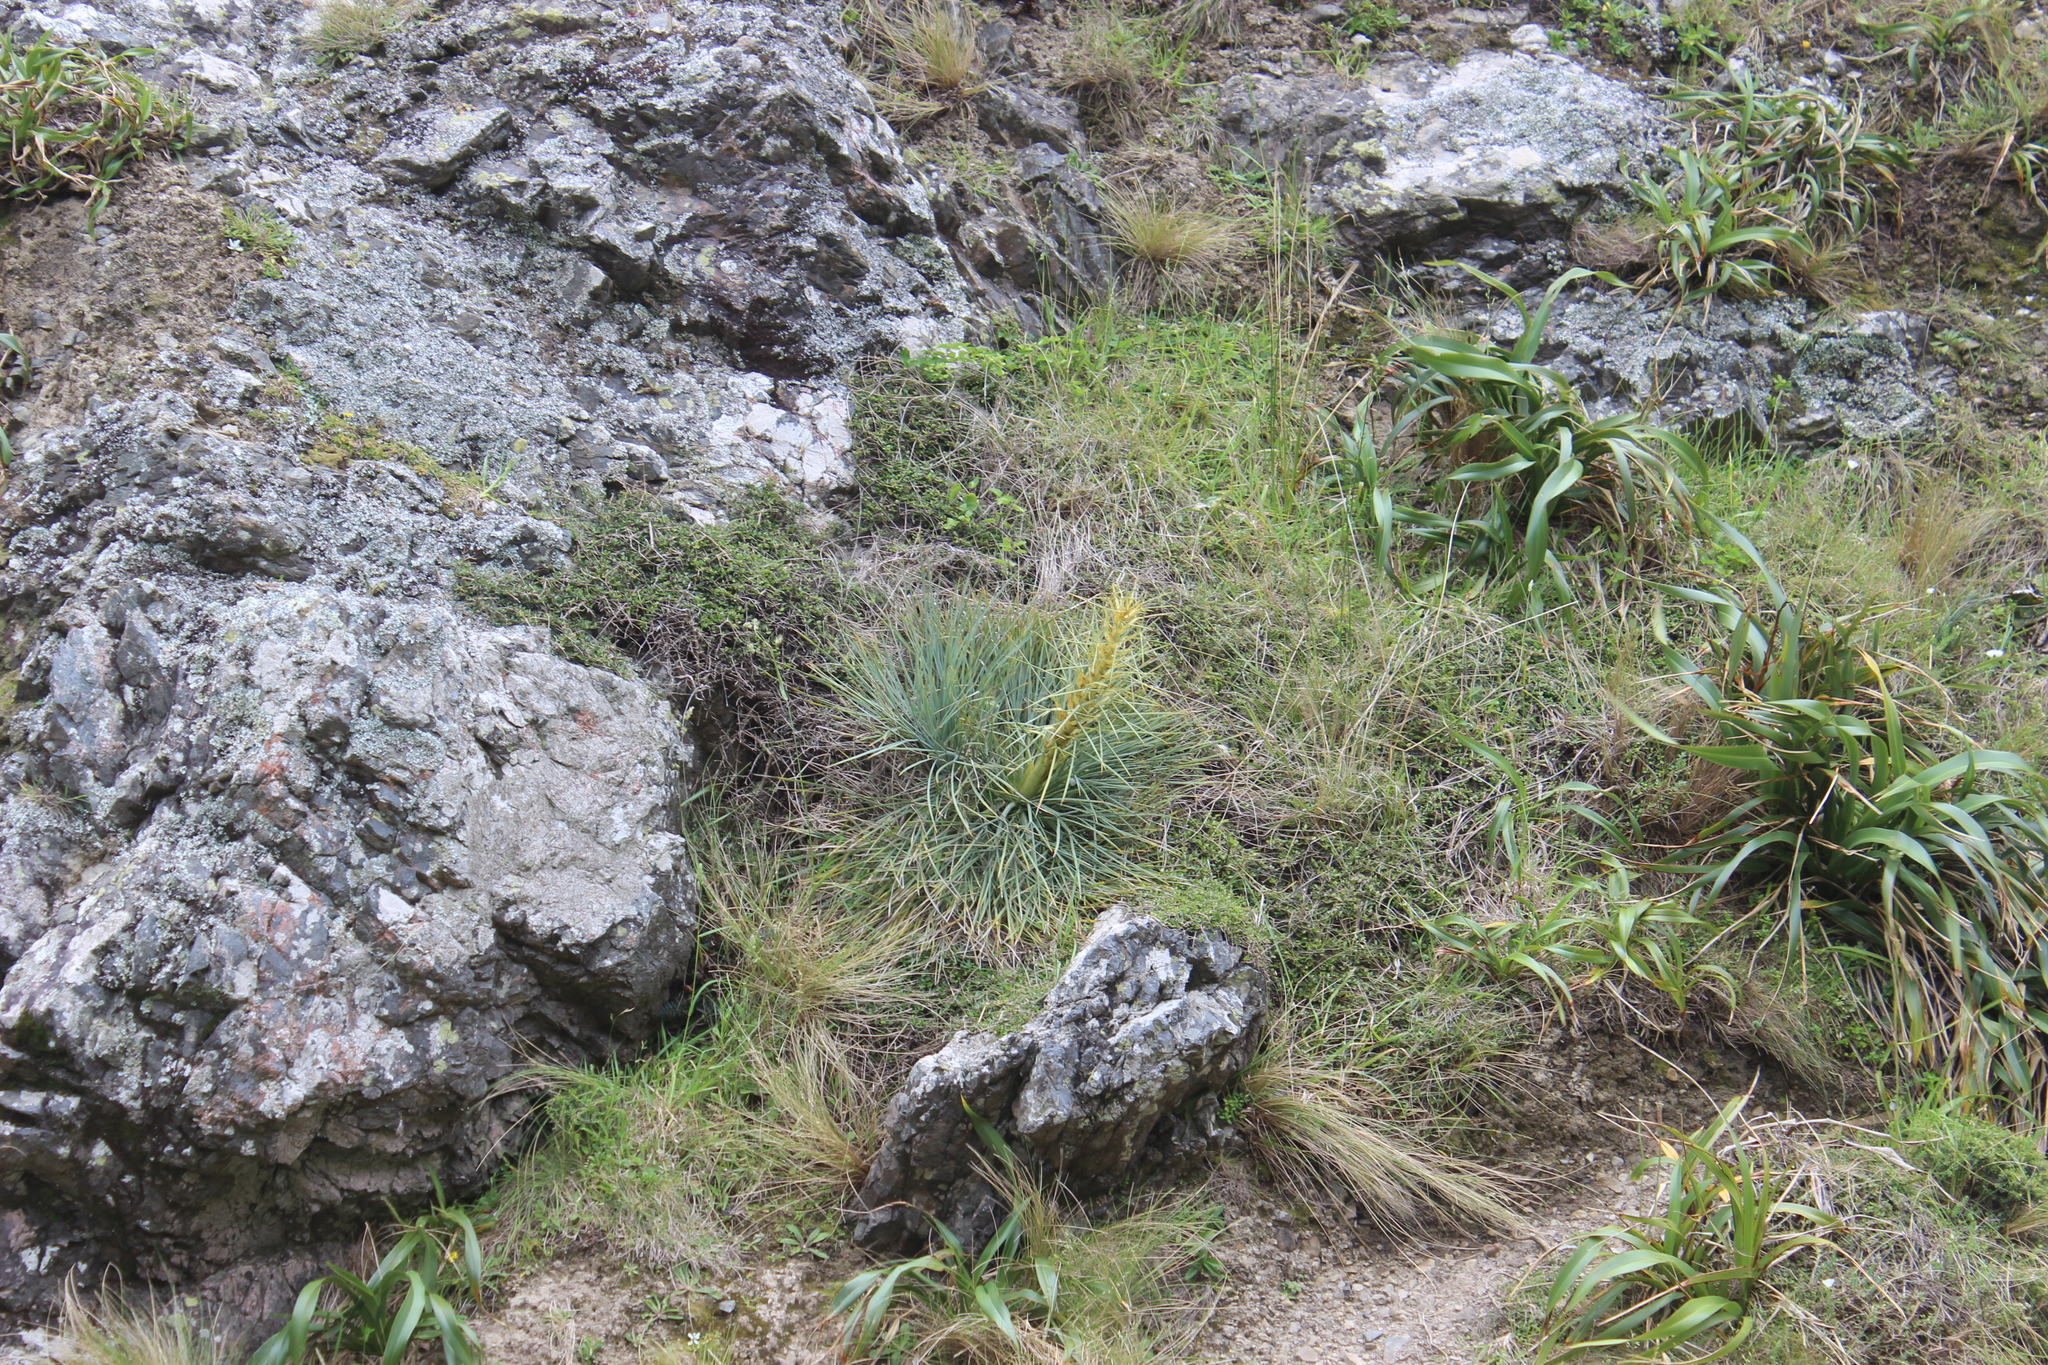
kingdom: Plantae
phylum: Tracheophyta
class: Magnoliopsida
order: Apiales
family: Apiaceae
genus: Aciphylla
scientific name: Aciphylla squarrosa
